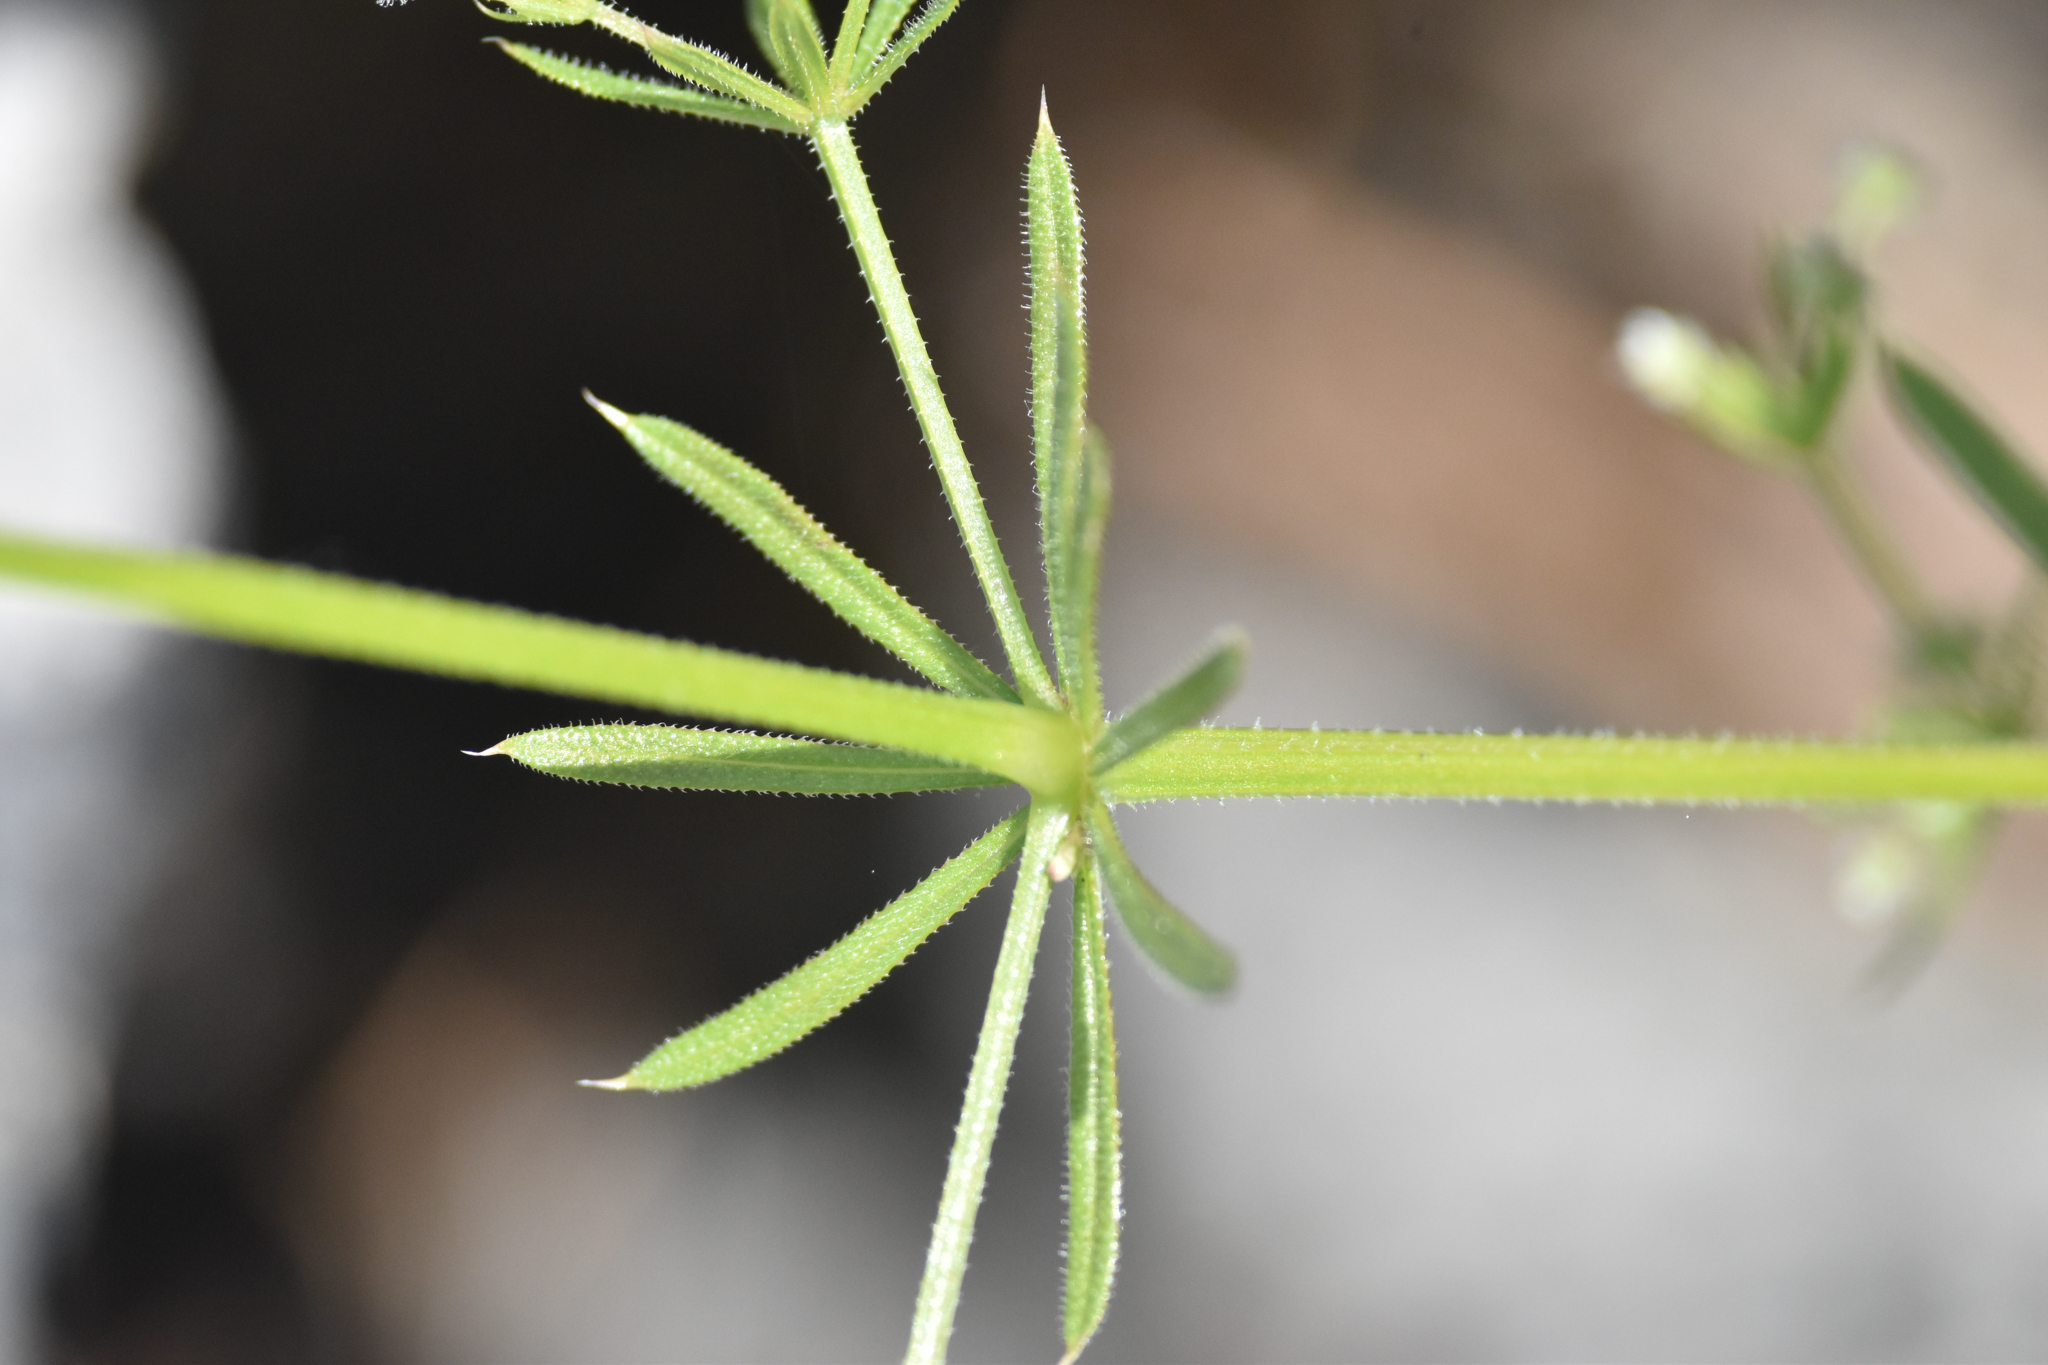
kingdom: Plantae
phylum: Tracheophyta
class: Magnoliopsida
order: Gentianales
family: Rubiaceae
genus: Galium
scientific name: Galium aparine
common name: Cleavers
